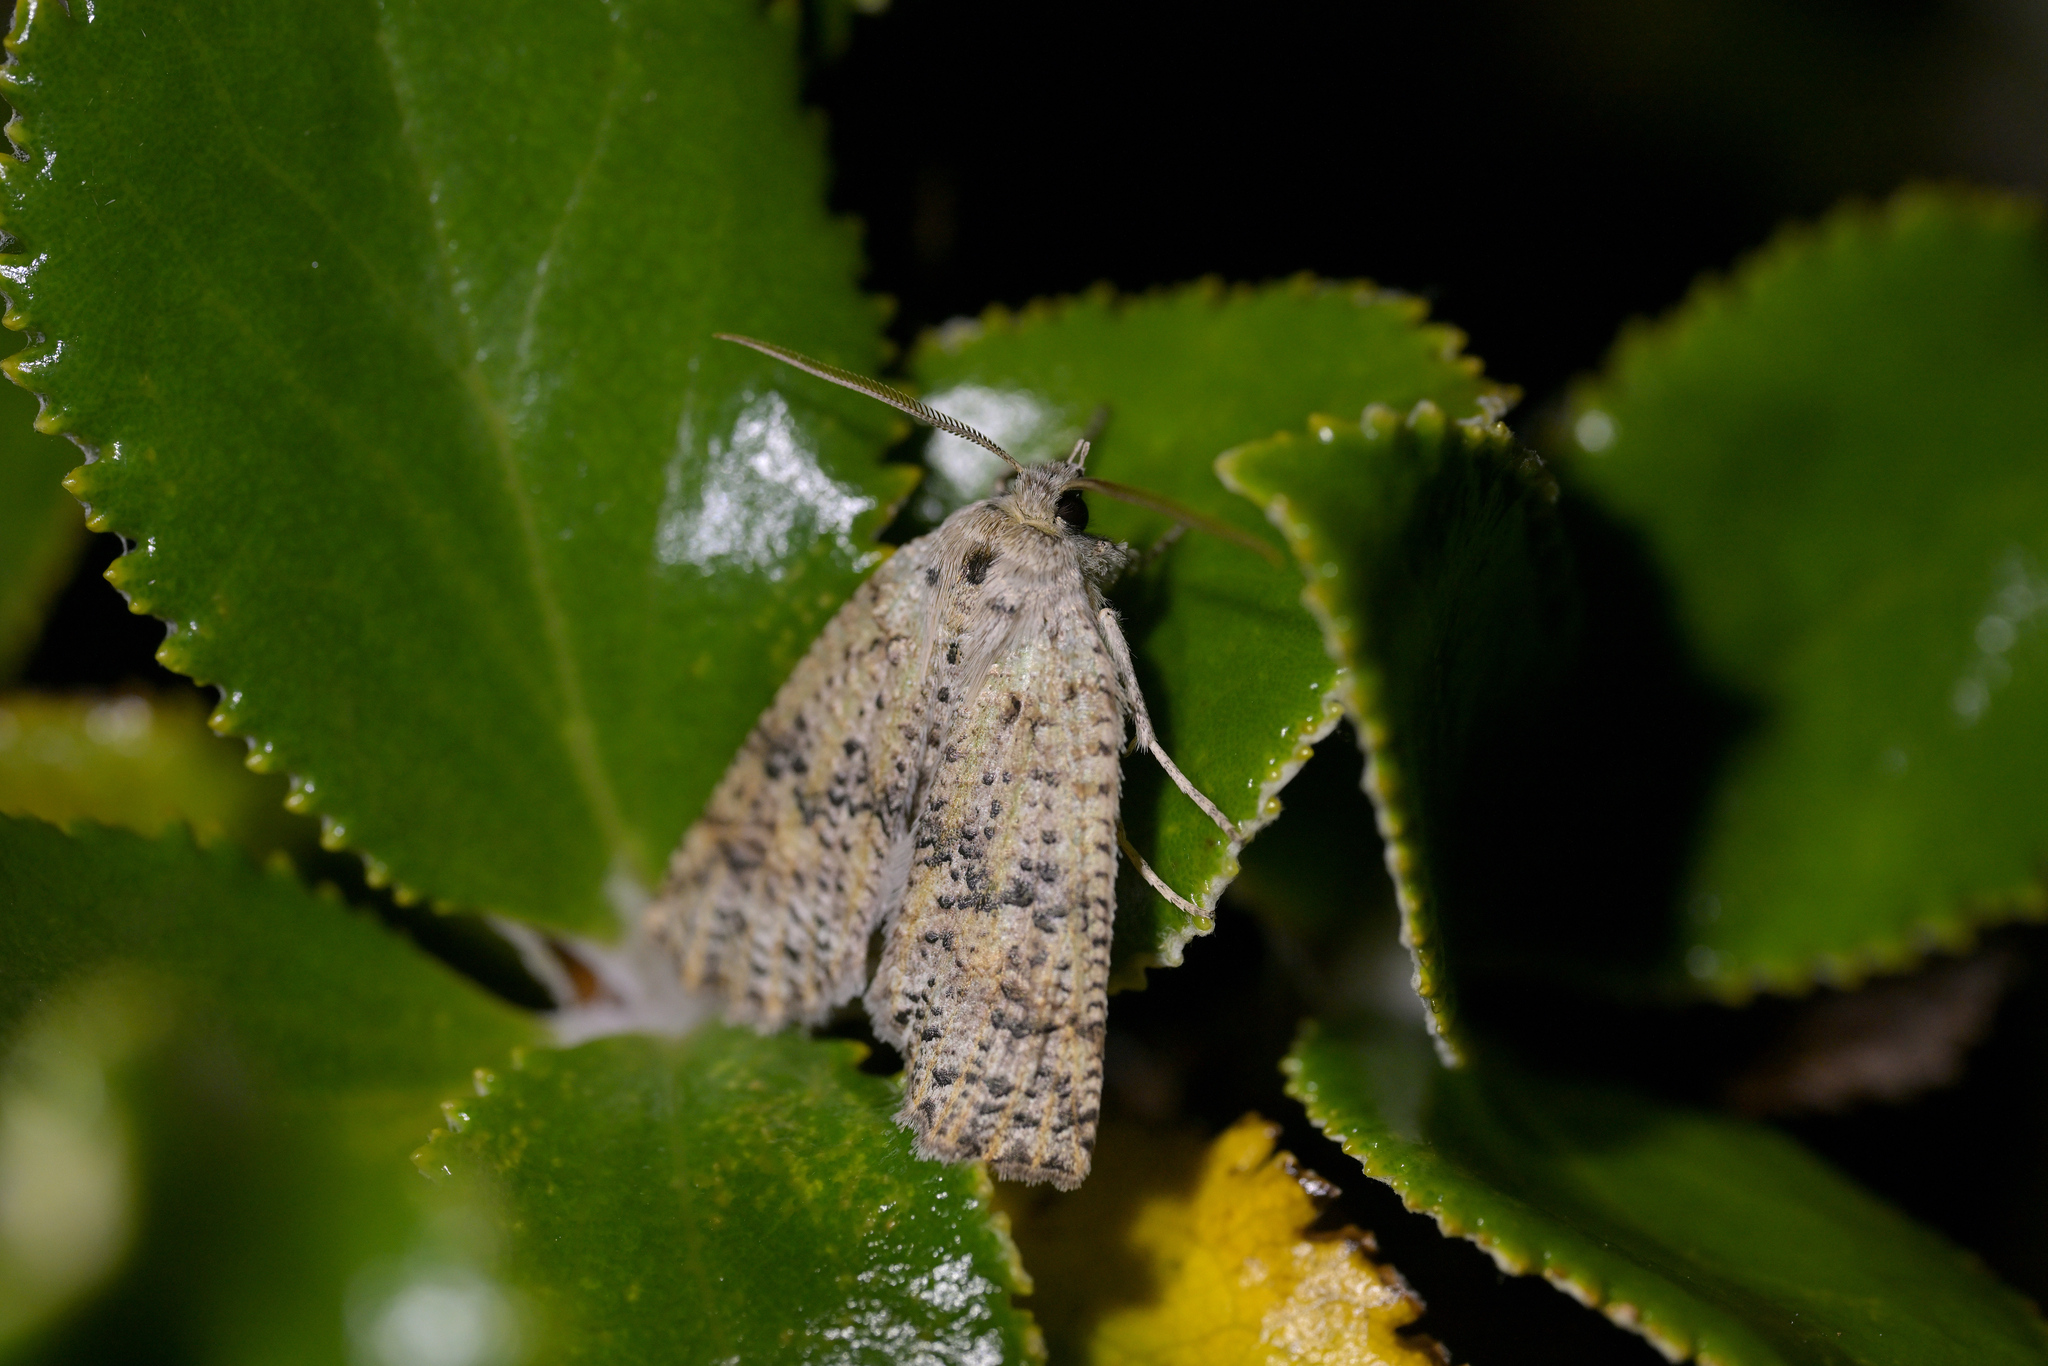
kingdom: Animalia
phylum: Arthropoda
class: Insecta
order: Lepidoptera
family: Geometridae
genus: Declana
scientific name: Declana floccosa
